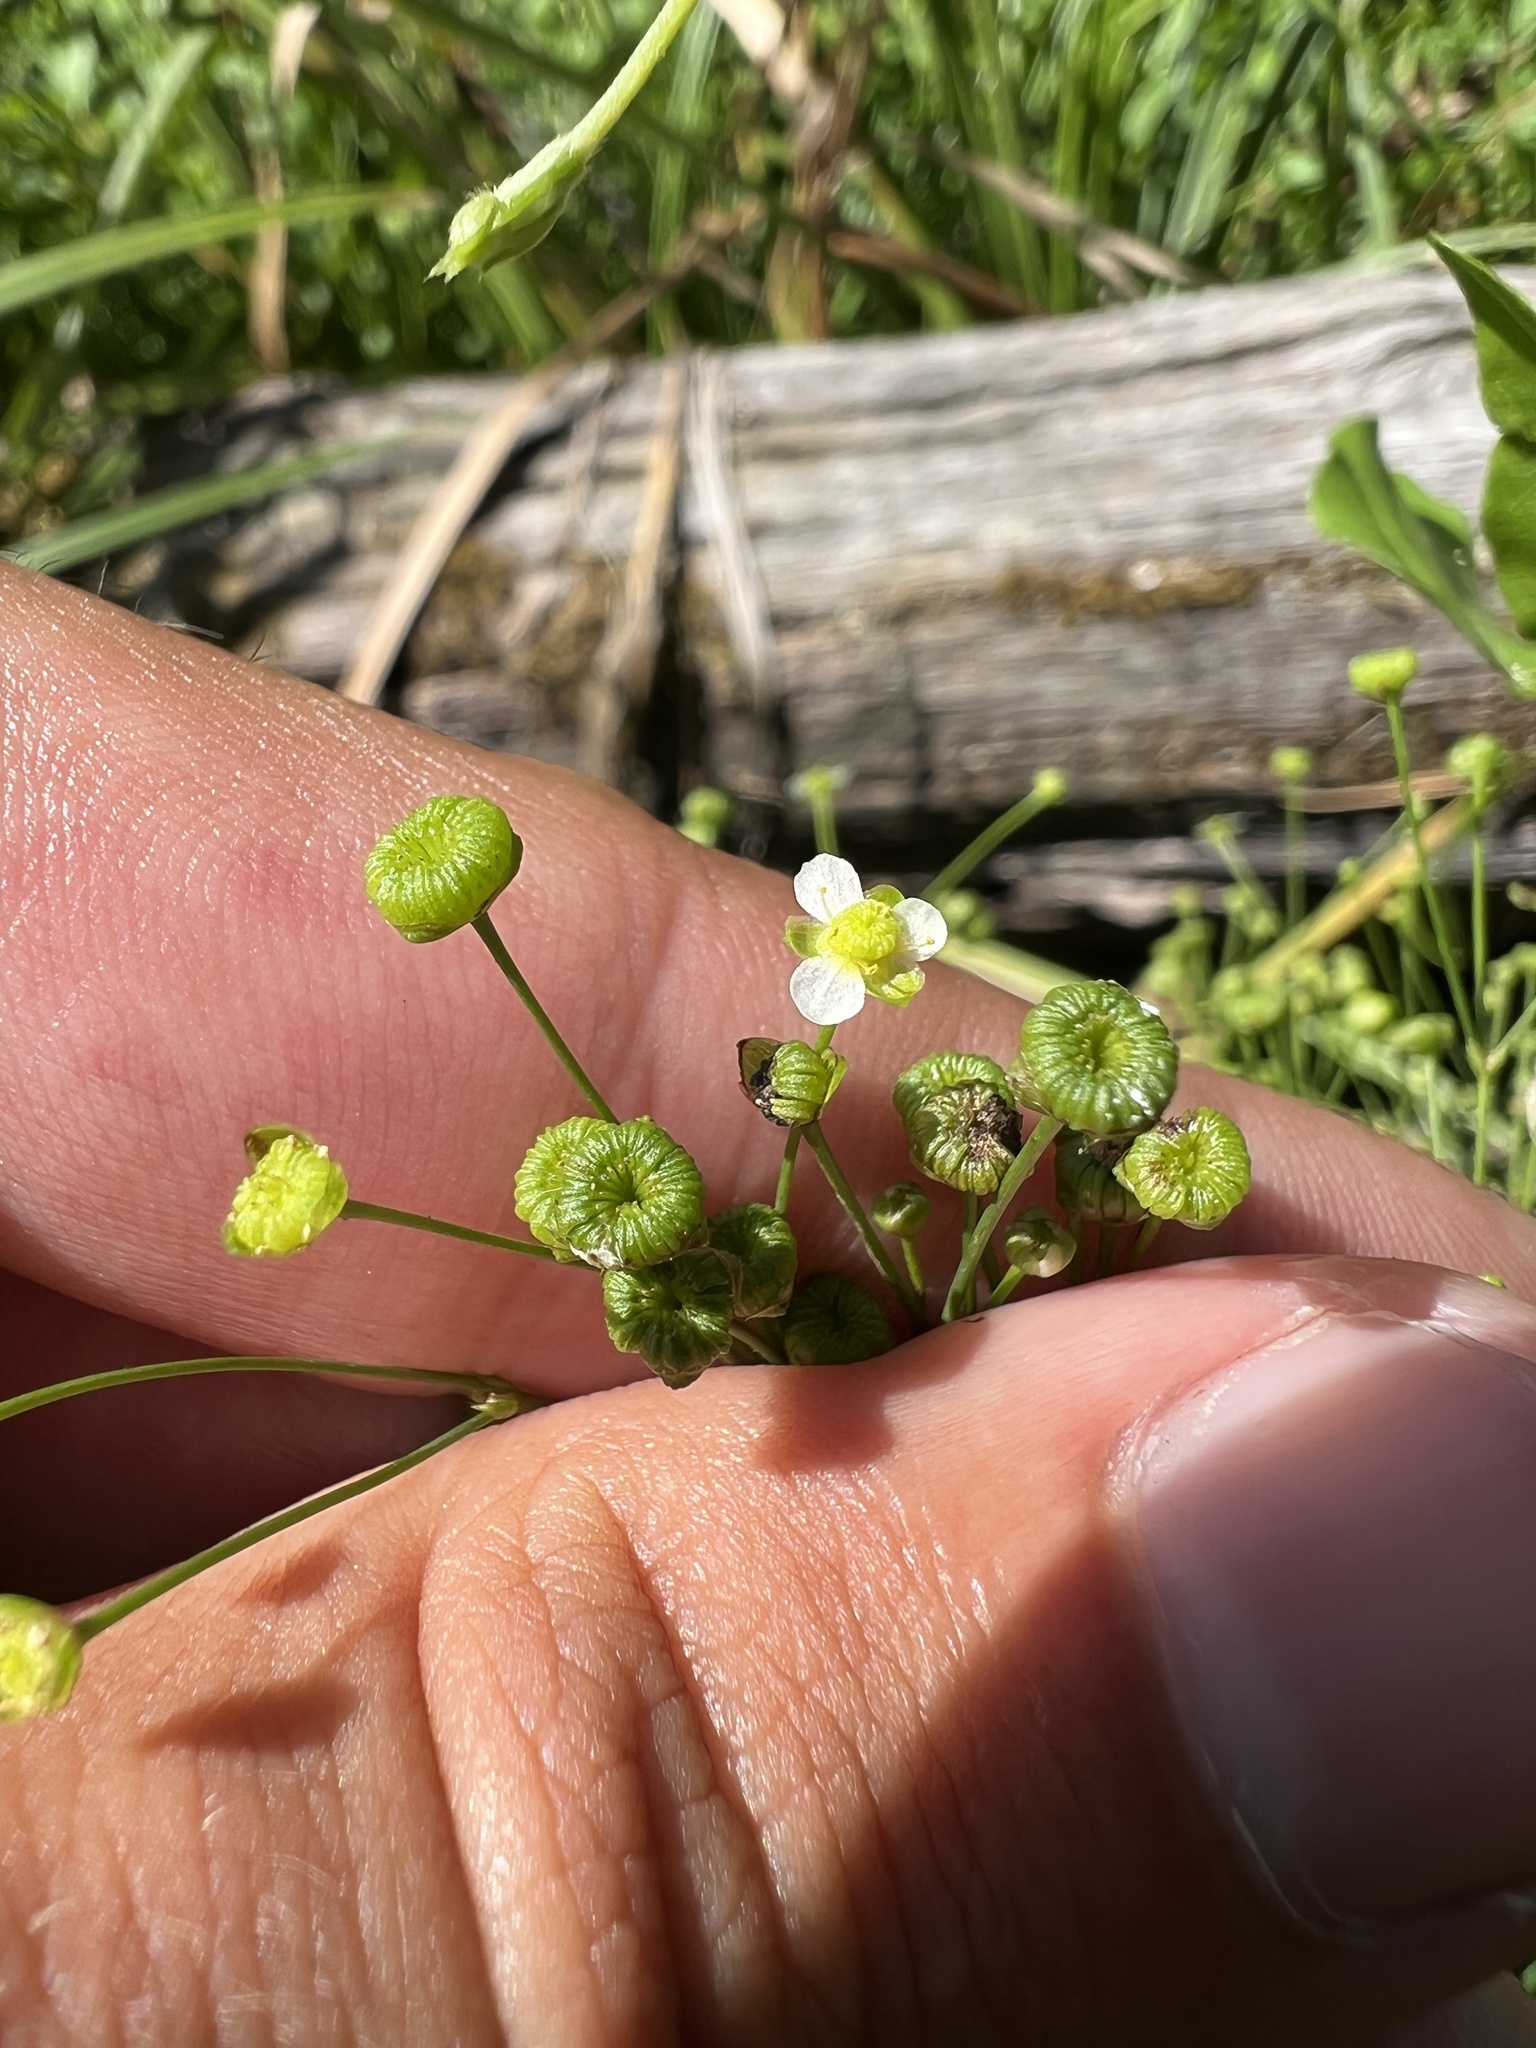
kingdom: Plantae
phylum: Tracheophyta
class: Liliopsida
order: Alismatales
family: Alismataceae
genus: Alisma
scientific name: Alisma subcordatum
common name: Southern water-plantain
